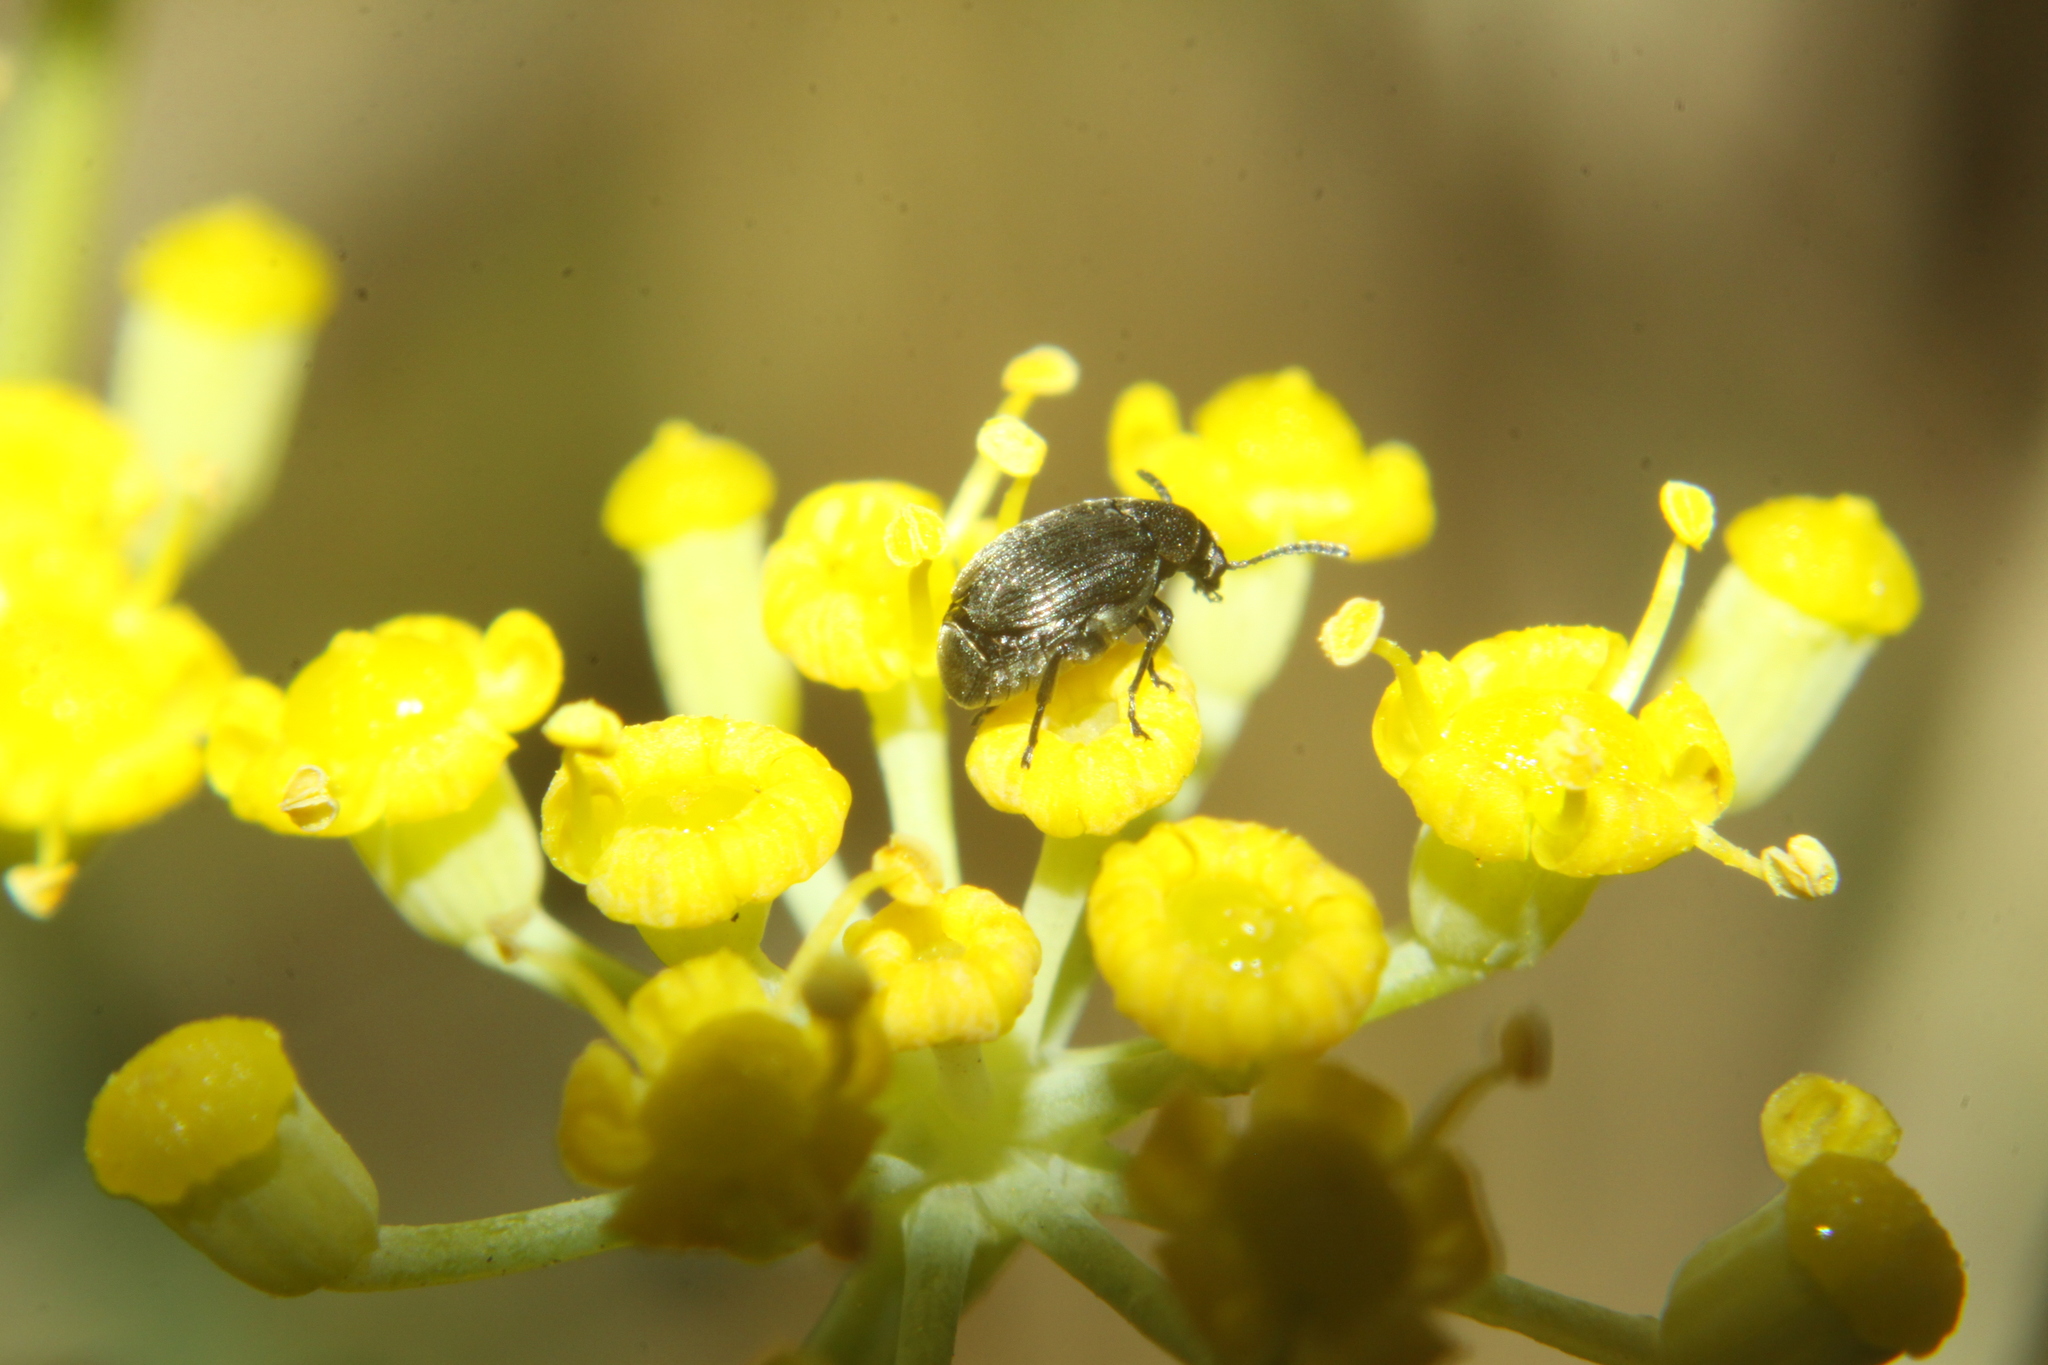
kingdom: Animalia
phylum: Arthropoda
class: Insecta
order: Coleoptera
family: Chrysomelidae
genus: Bruchidius
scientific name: Bruchidius villosus
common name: Scotch broom bruchid
